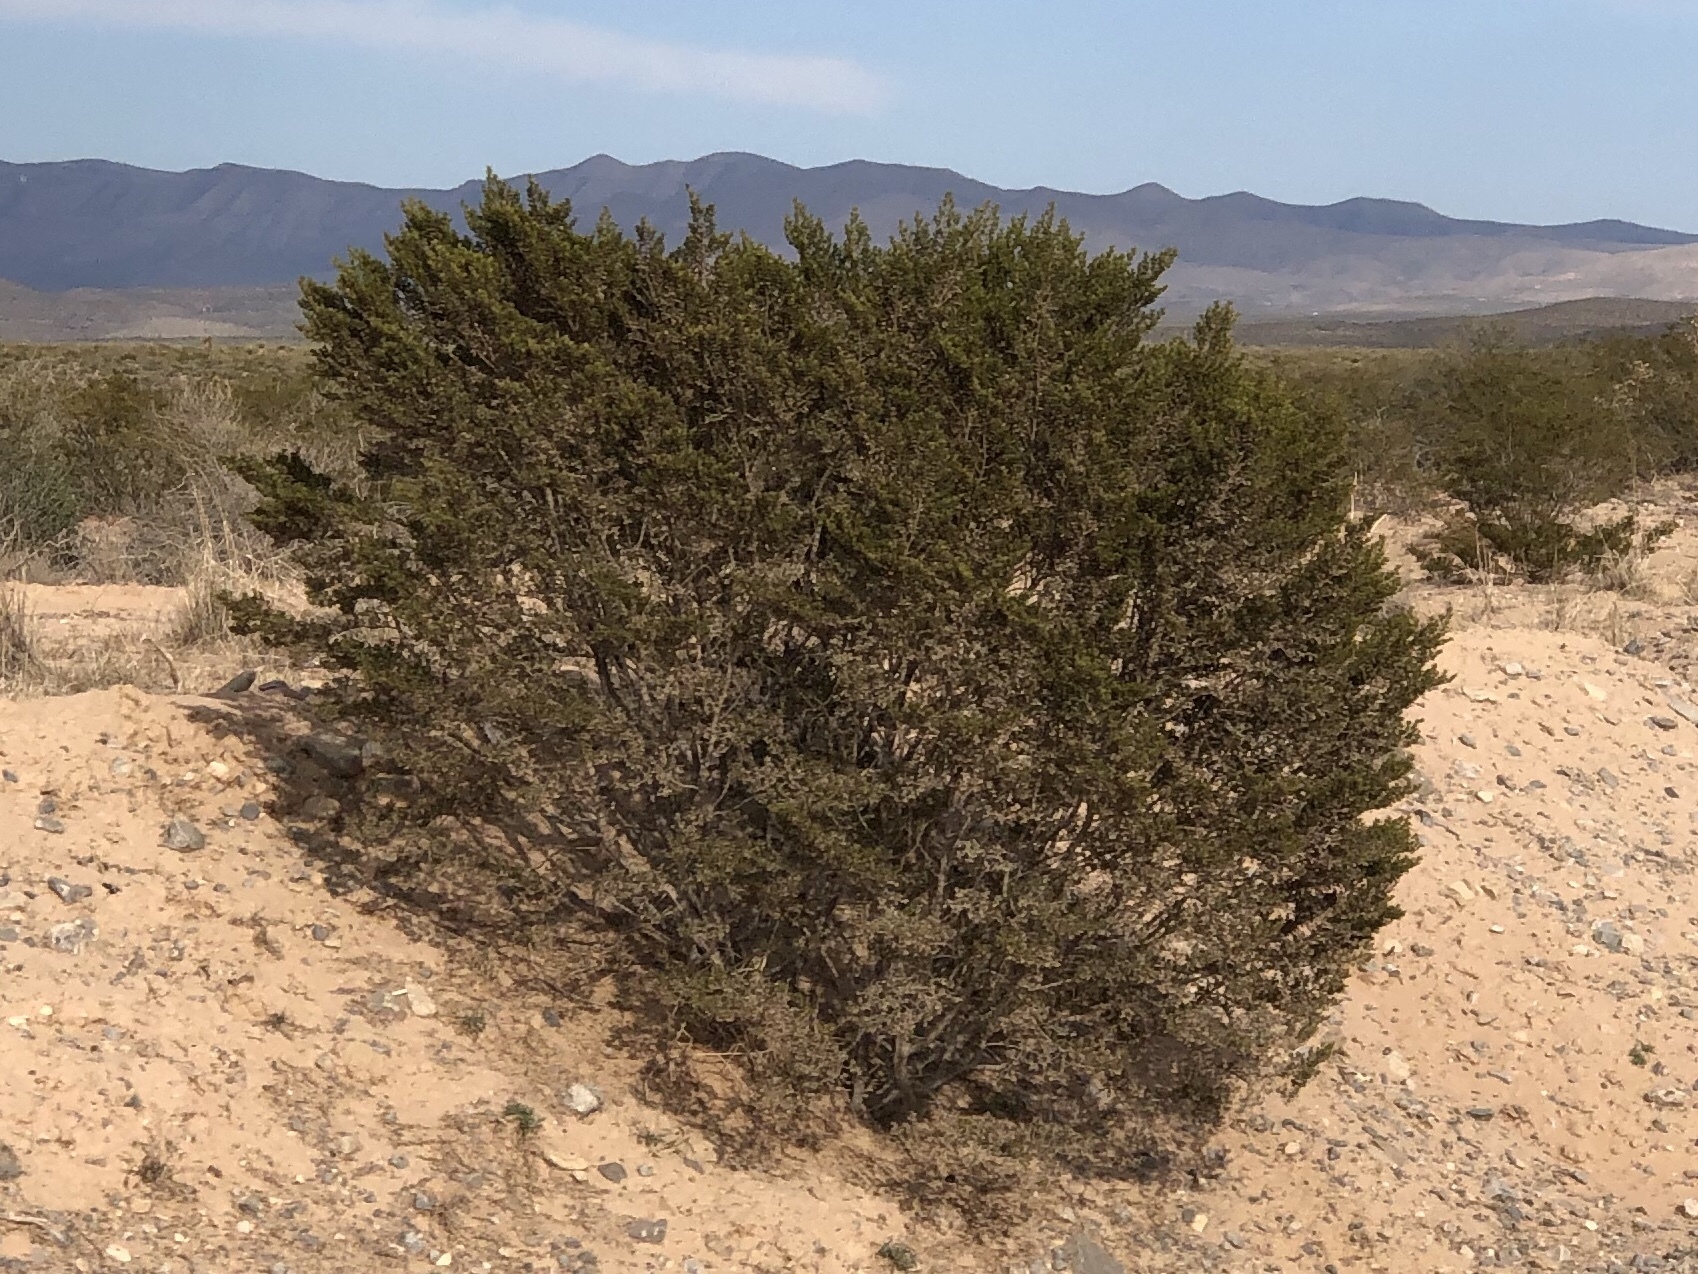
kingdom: Plantae
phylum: Tracheophyta
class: Magnoliopsida
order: Zygophyllales
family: Zygophyllaceae
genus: Larrea
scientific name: Larrea tridentata
